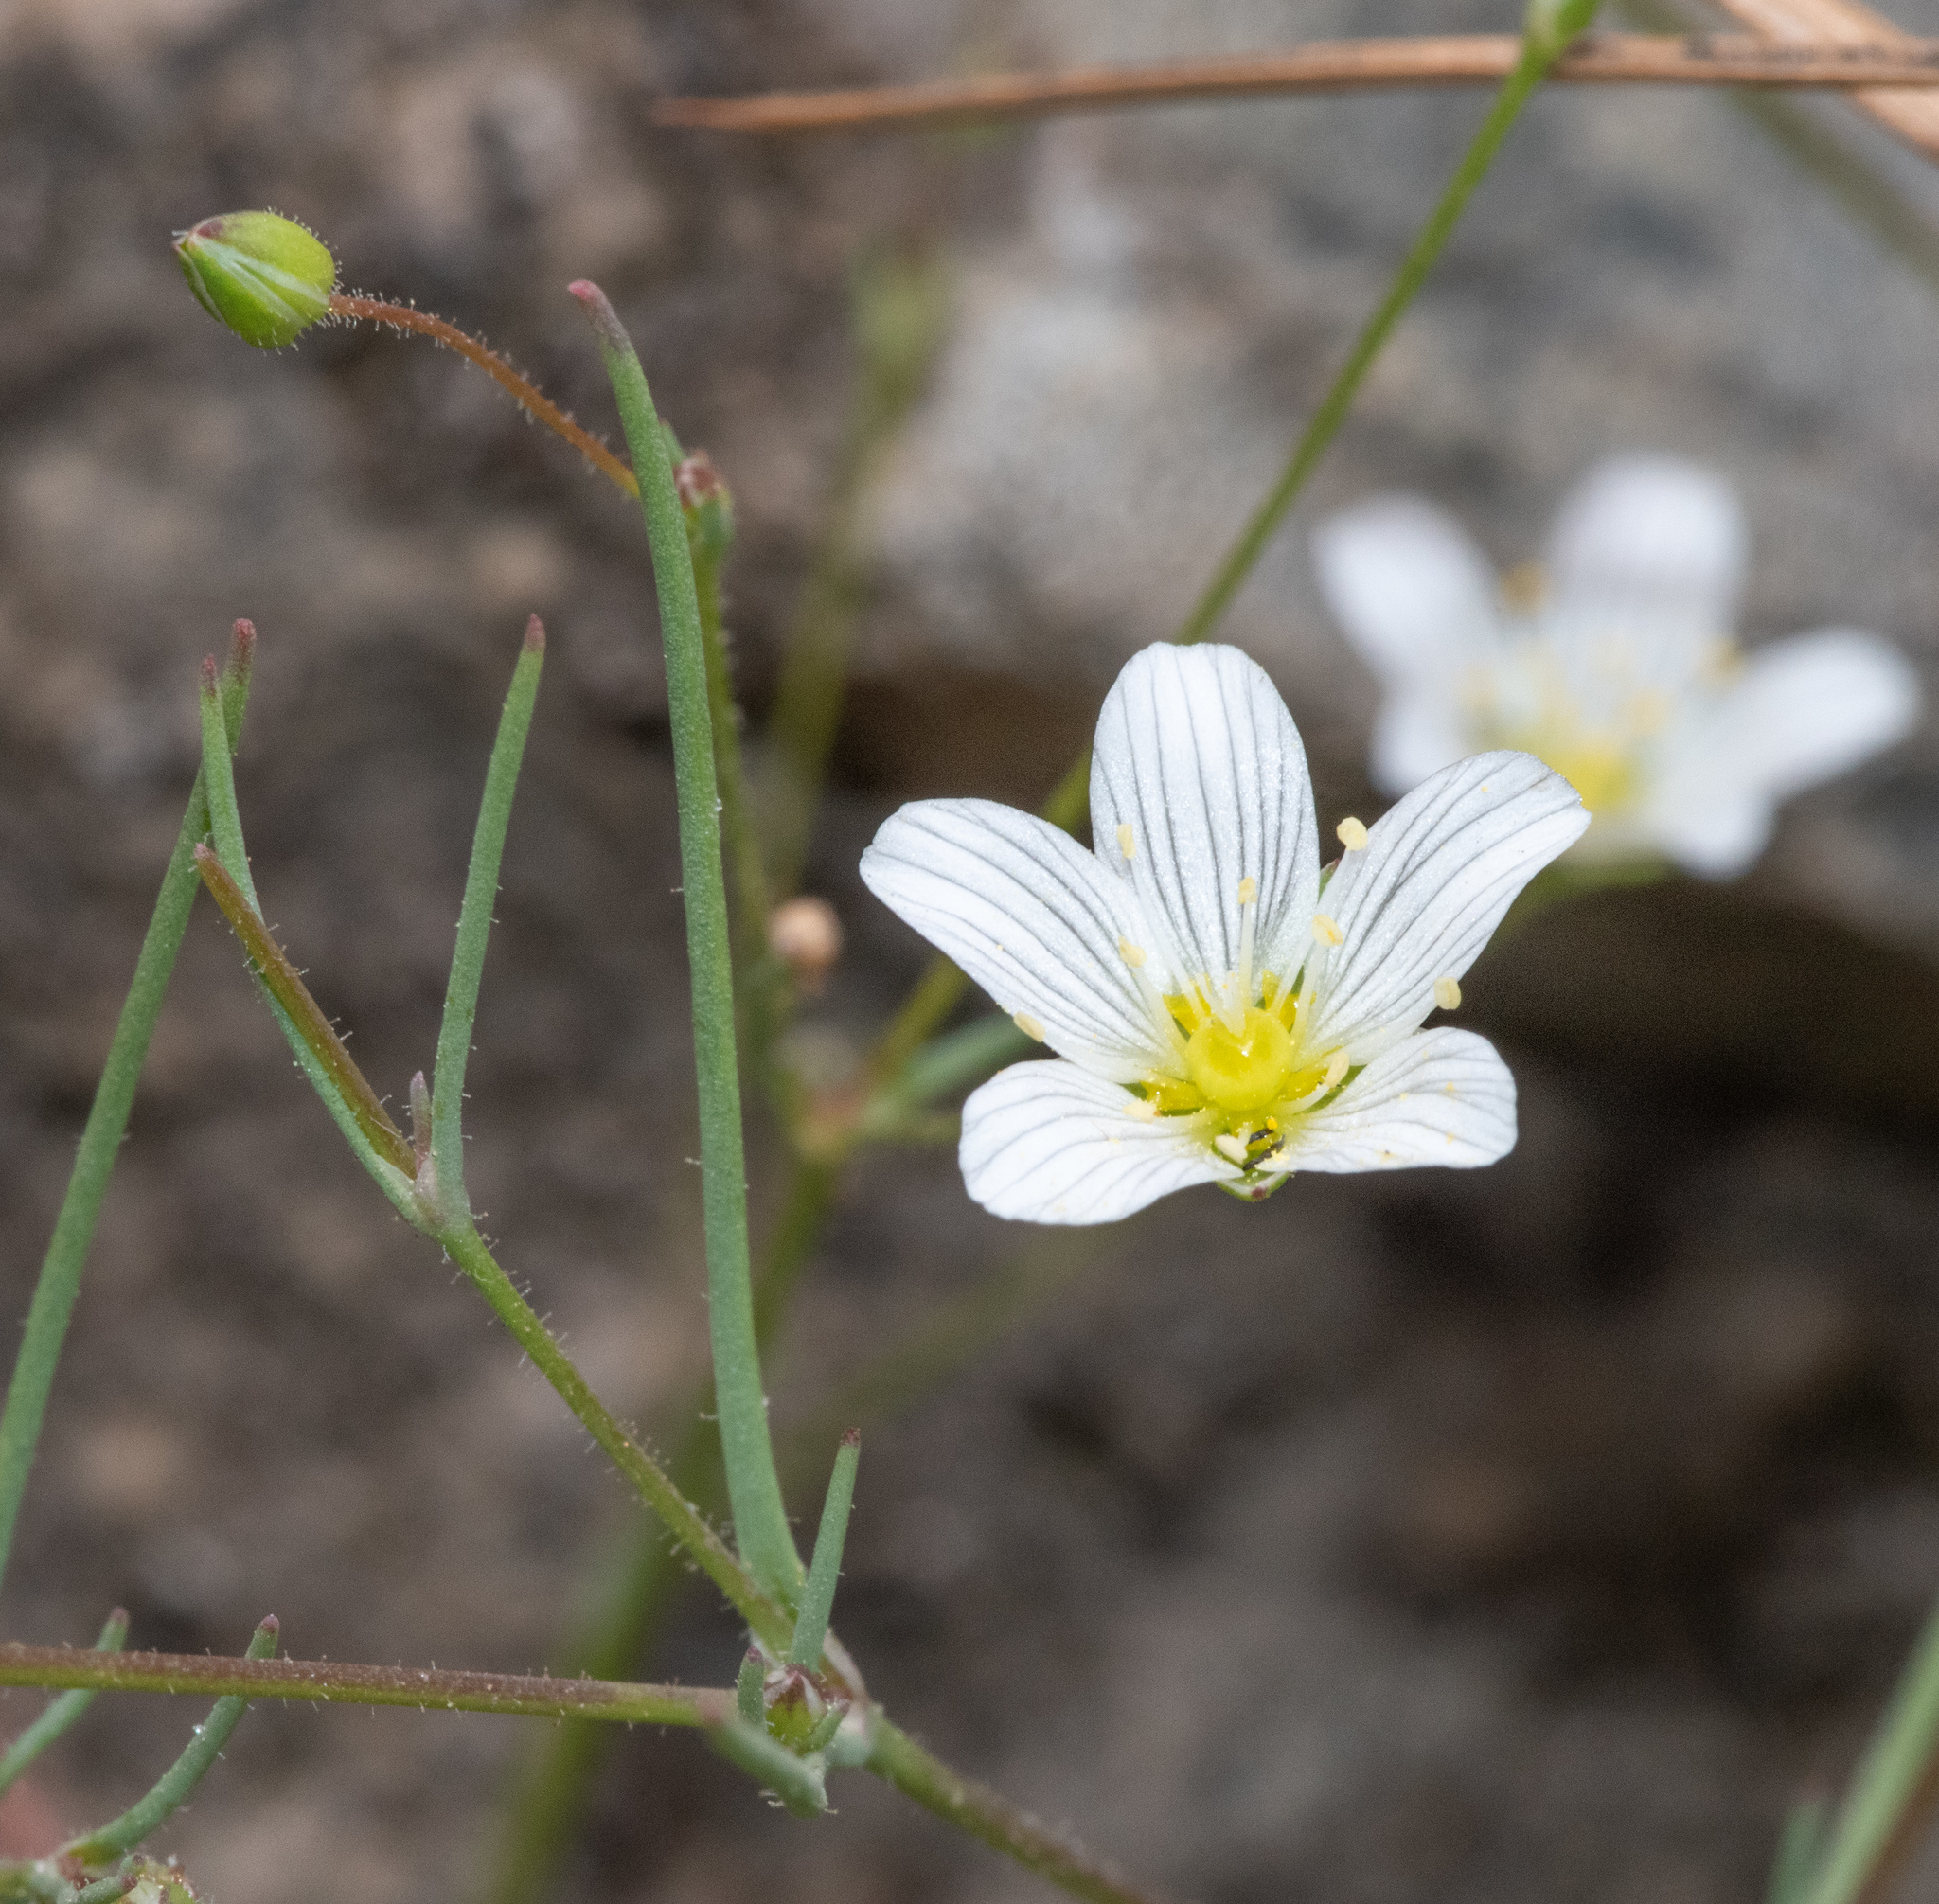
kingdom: Plantae
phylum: Tracheophyta
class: Magnoliopsida
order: Caryophyllales
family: Caryophyllaceae
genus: Sabulina
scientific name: Sabulina douglasii
